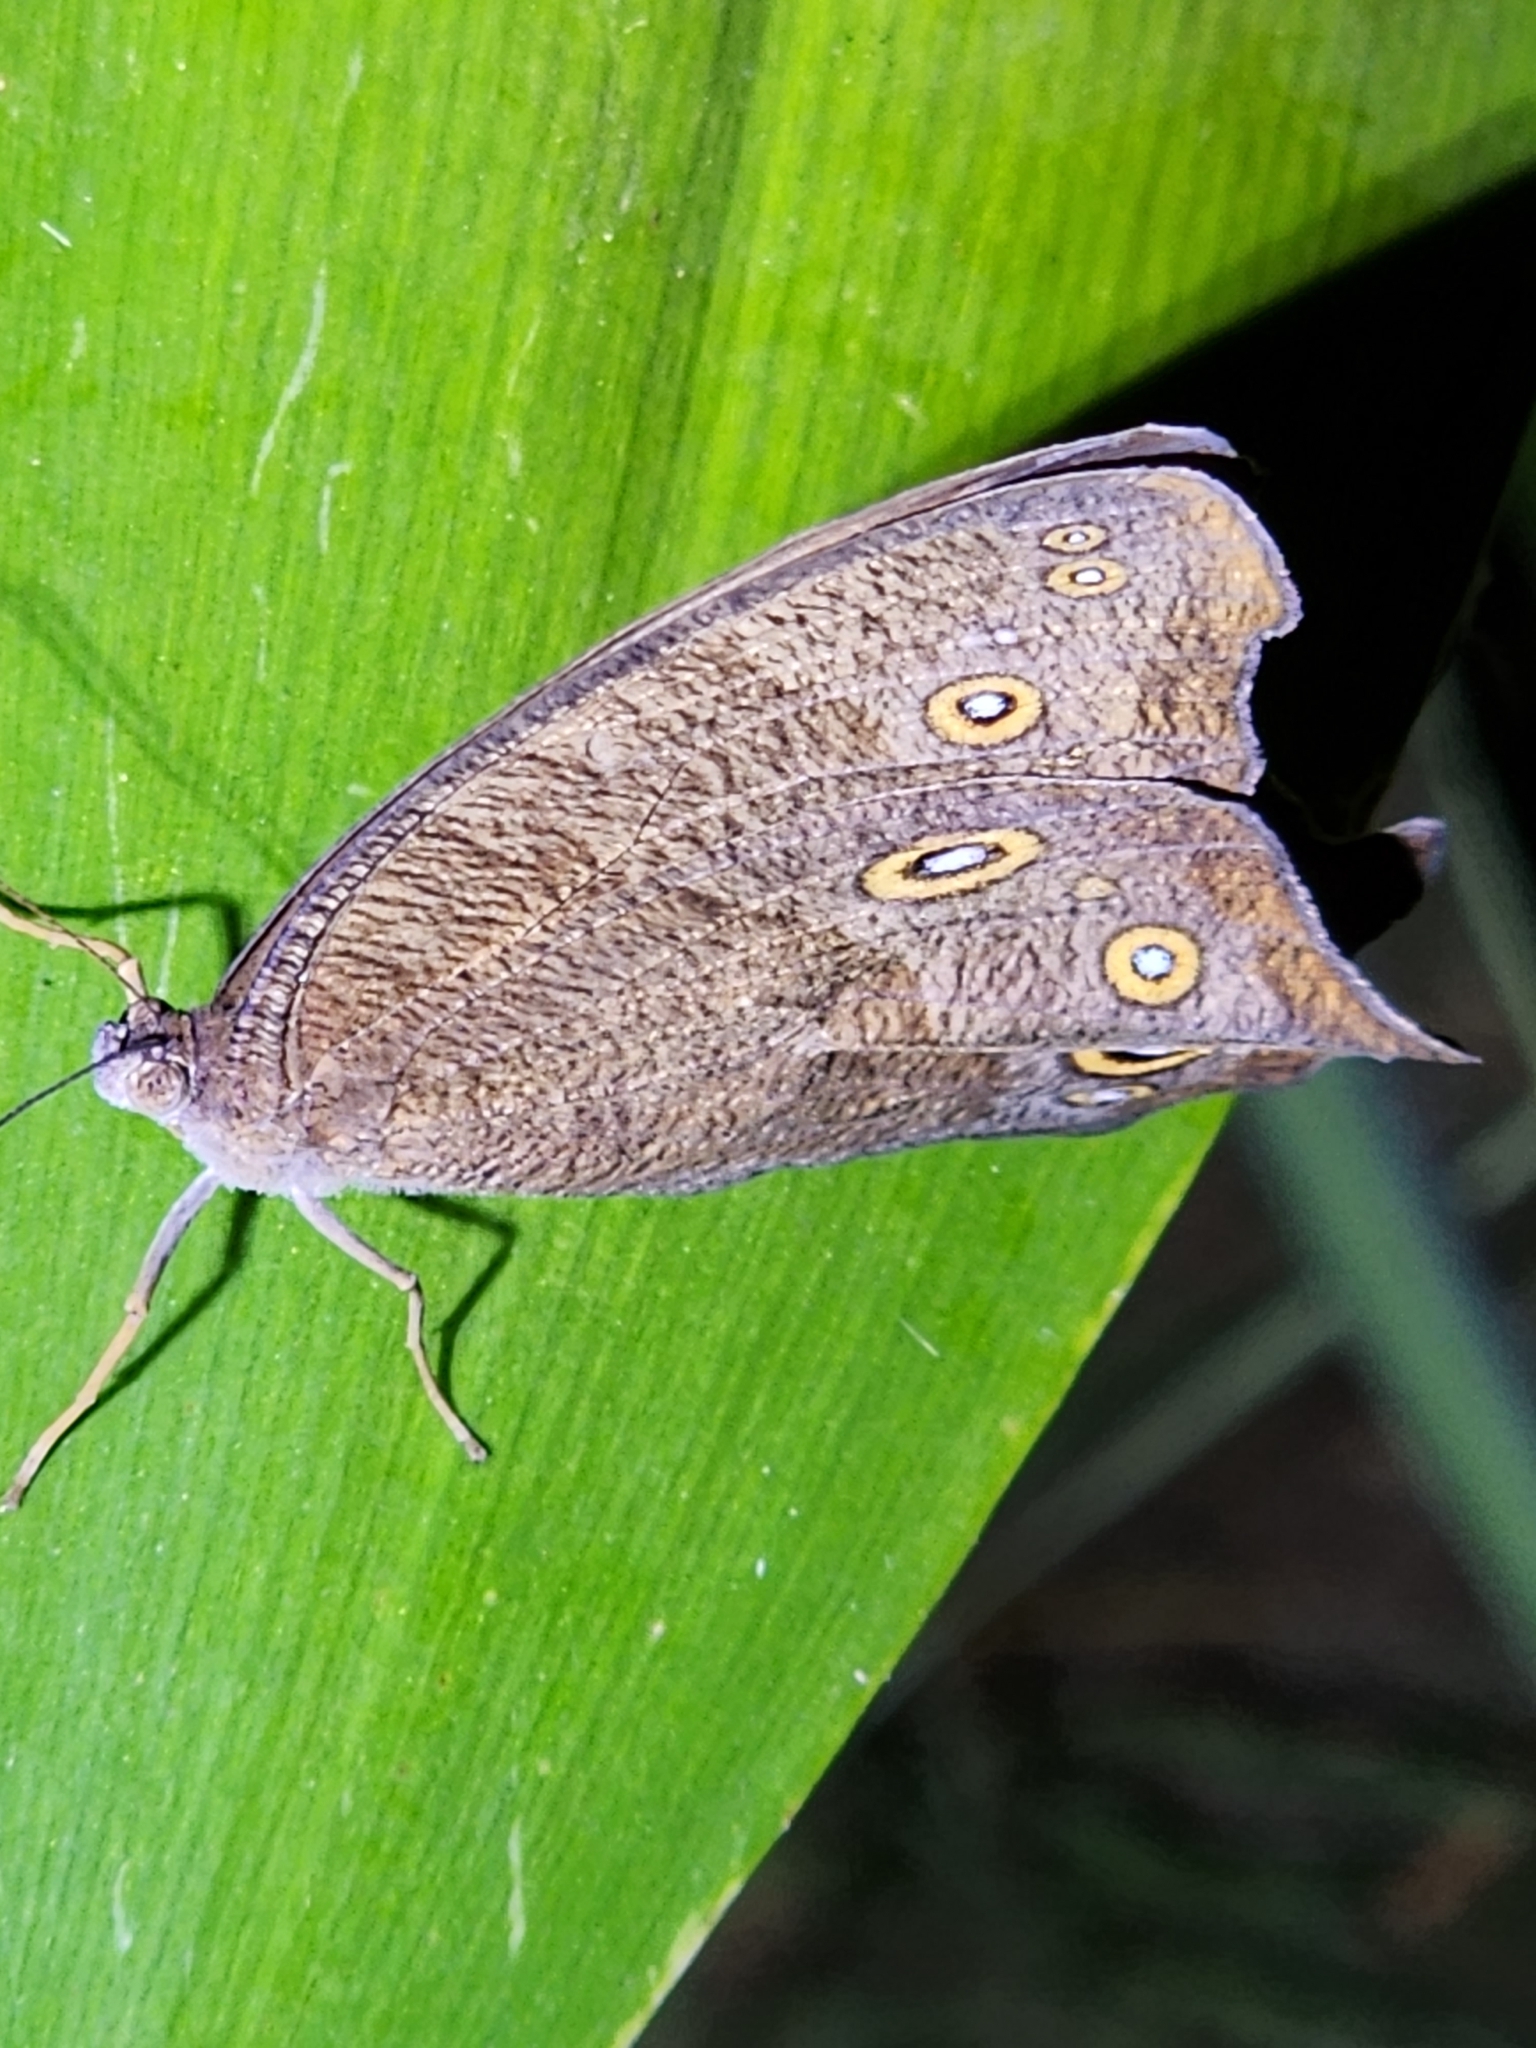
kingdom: Animalia
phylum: Arthropoda
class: Insecta
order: Lepidoptera
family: Nymphalidae
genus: Melanitis
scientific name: Melanitis leda
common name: Twilight brown
